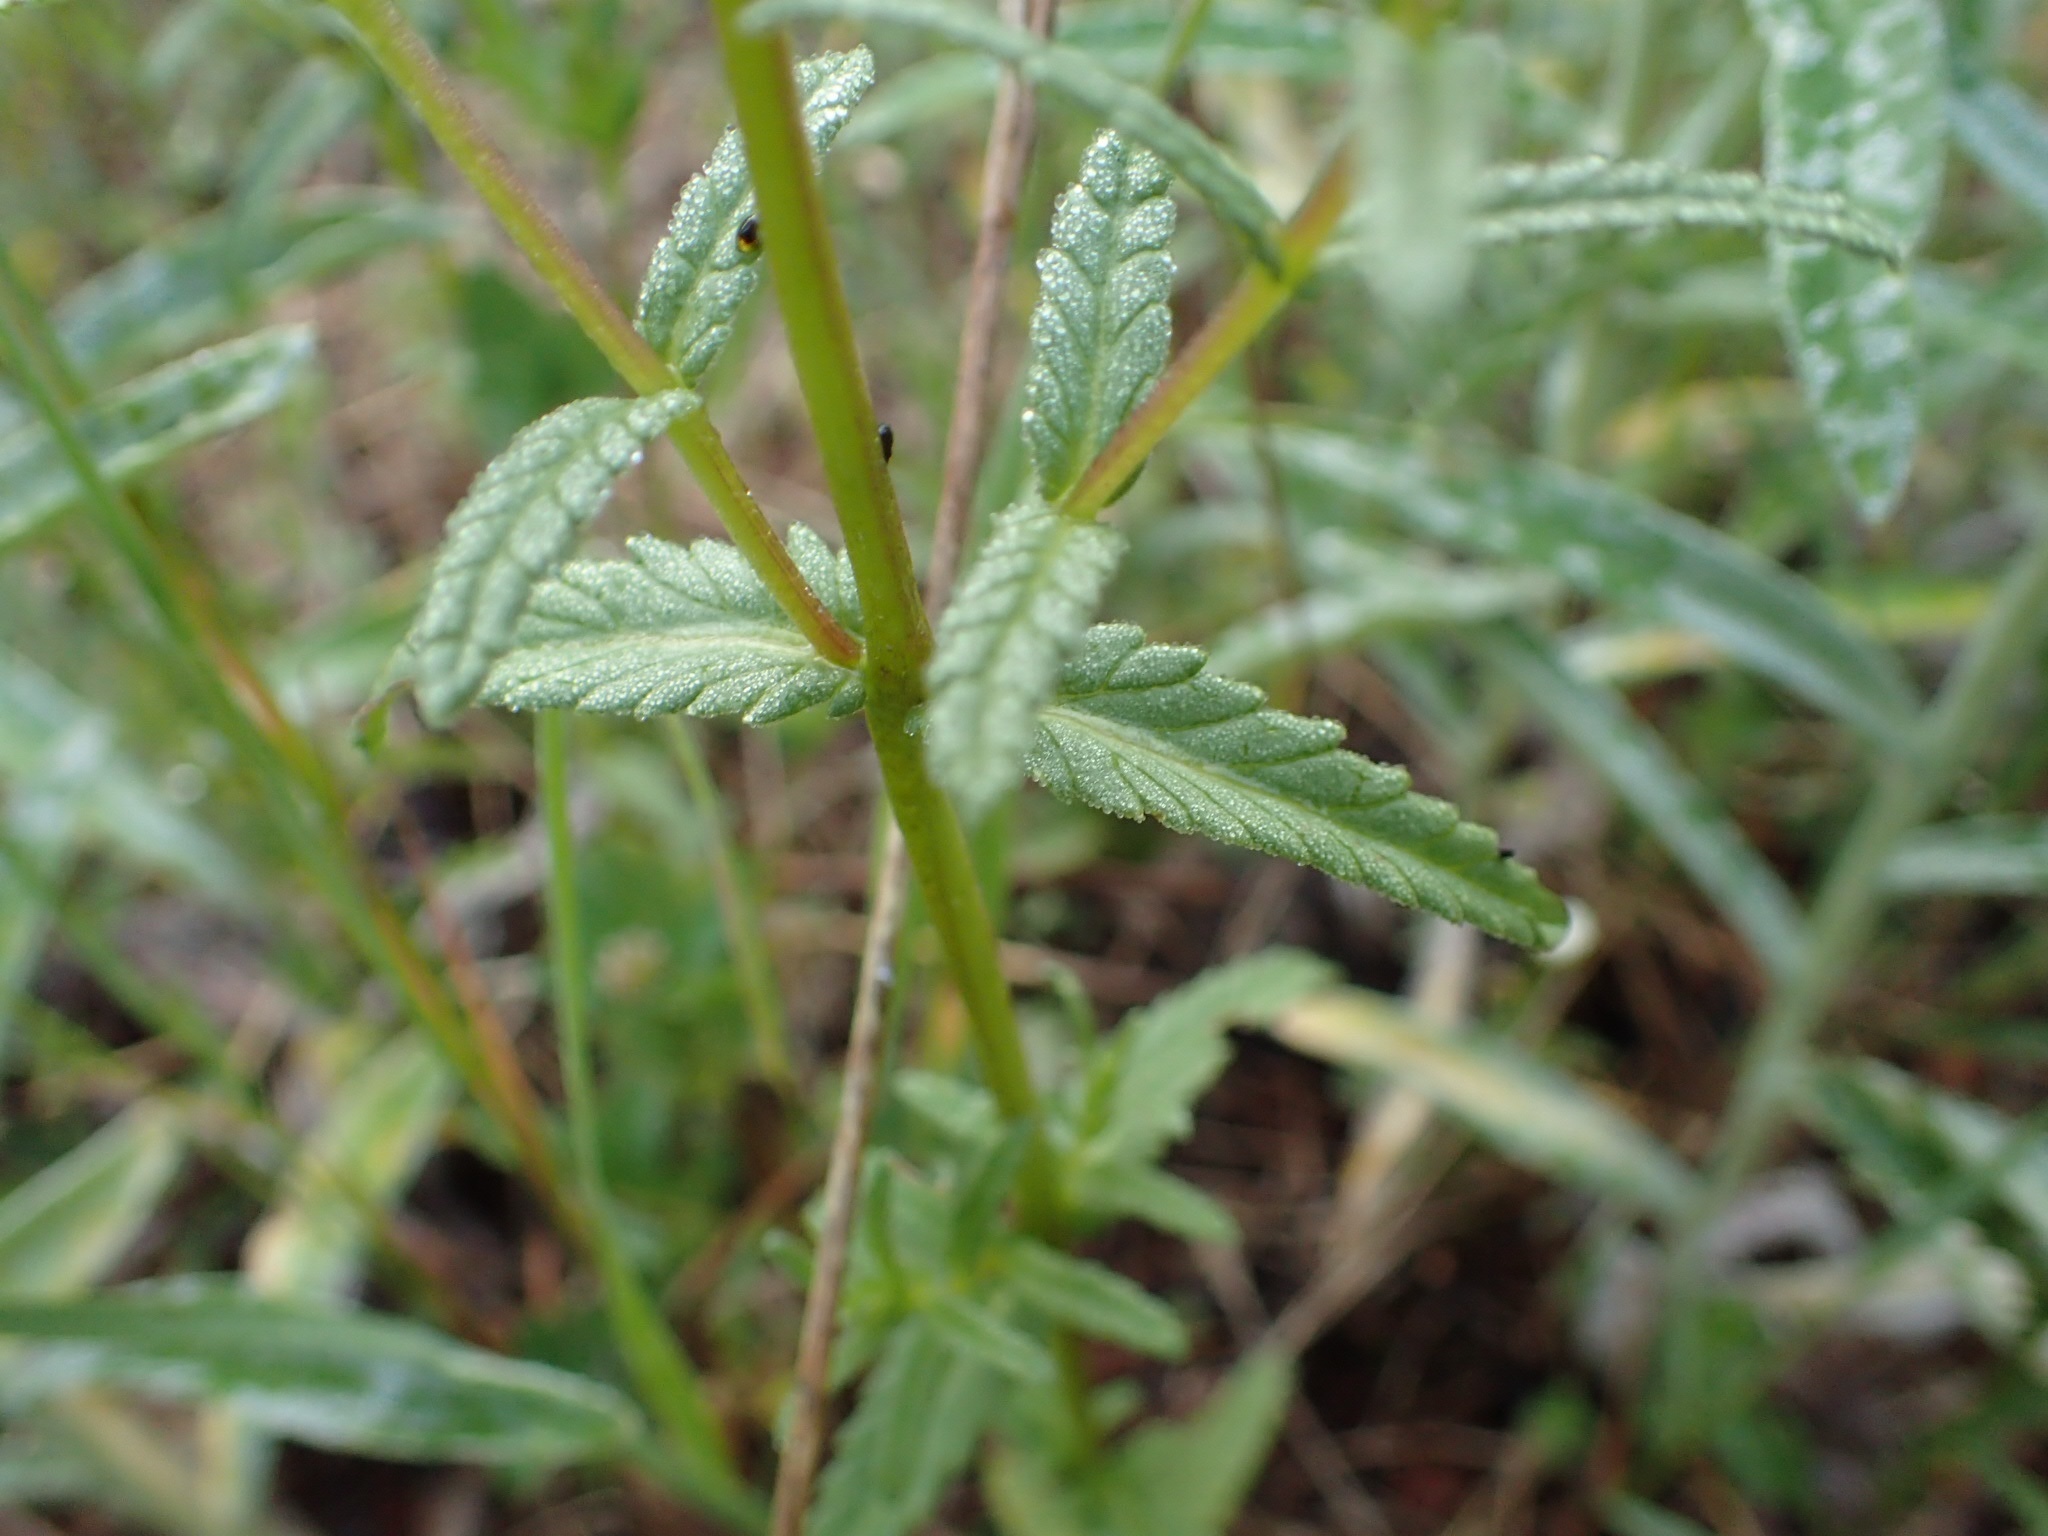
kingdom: Plantae
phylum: Tracheophyta
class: Magnoliopsida
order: Lamiales
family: Orobanchaceae
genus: Rhinanthus
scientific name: Rhinanthus minor
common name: Yellow-rattle
